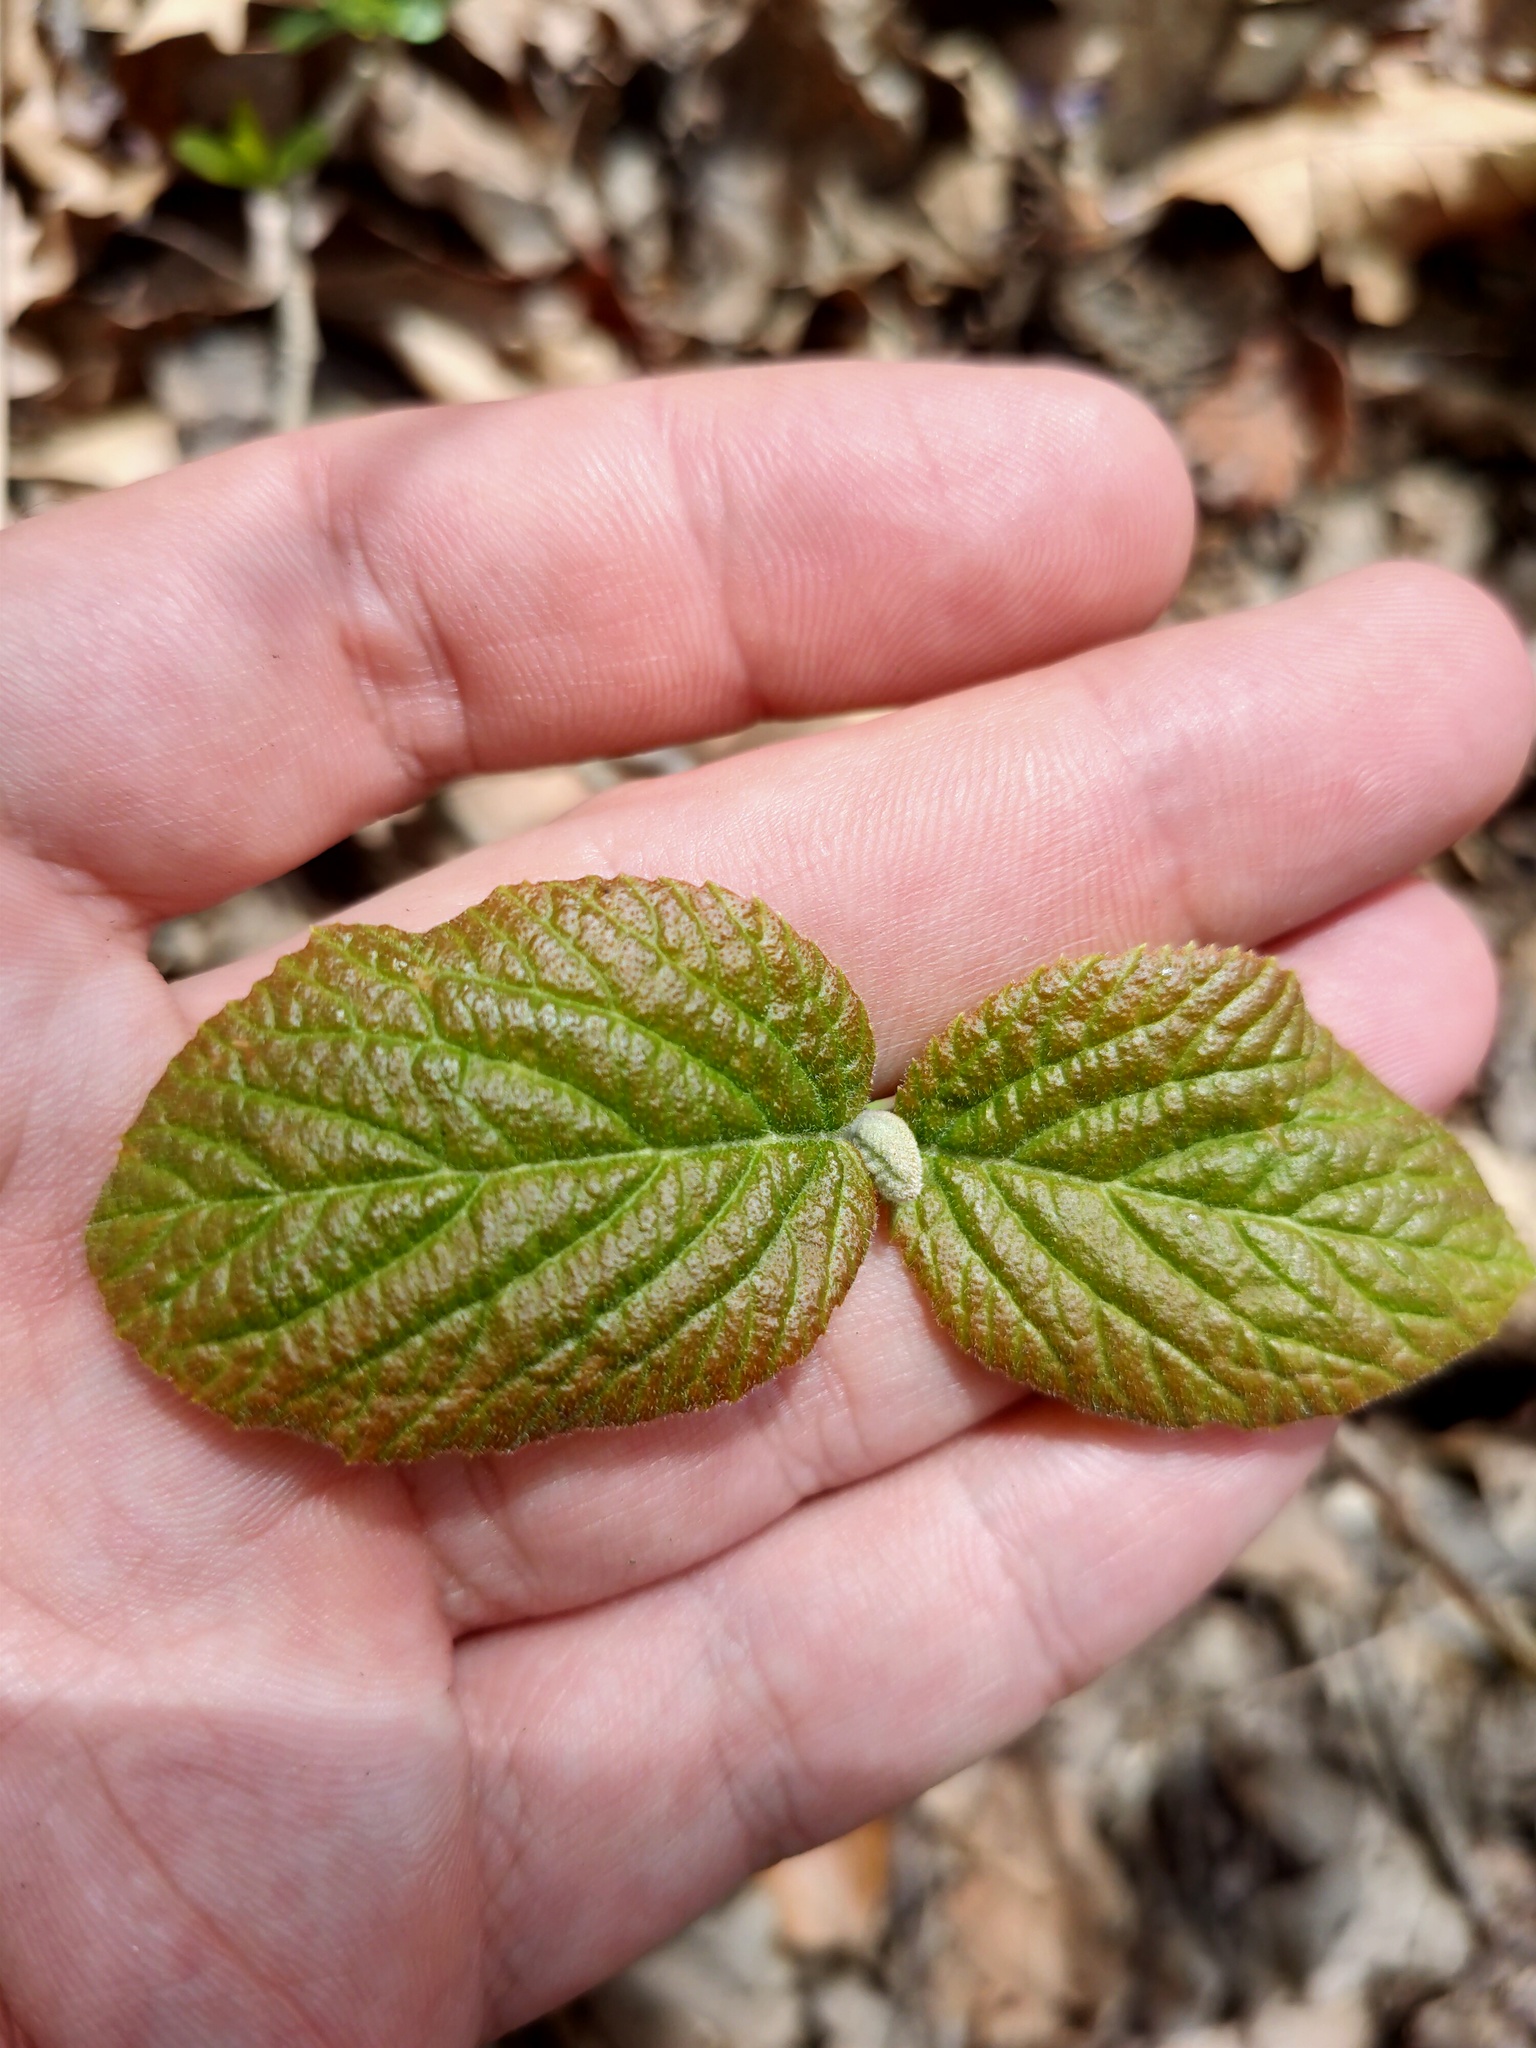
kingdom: Plantae
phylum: Tracheophyta
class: Magnoliopsida
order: Dipsacales
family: Viburnaceae
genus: Viburnum
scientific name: Viburnum lantana
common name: Wayfaring tree
